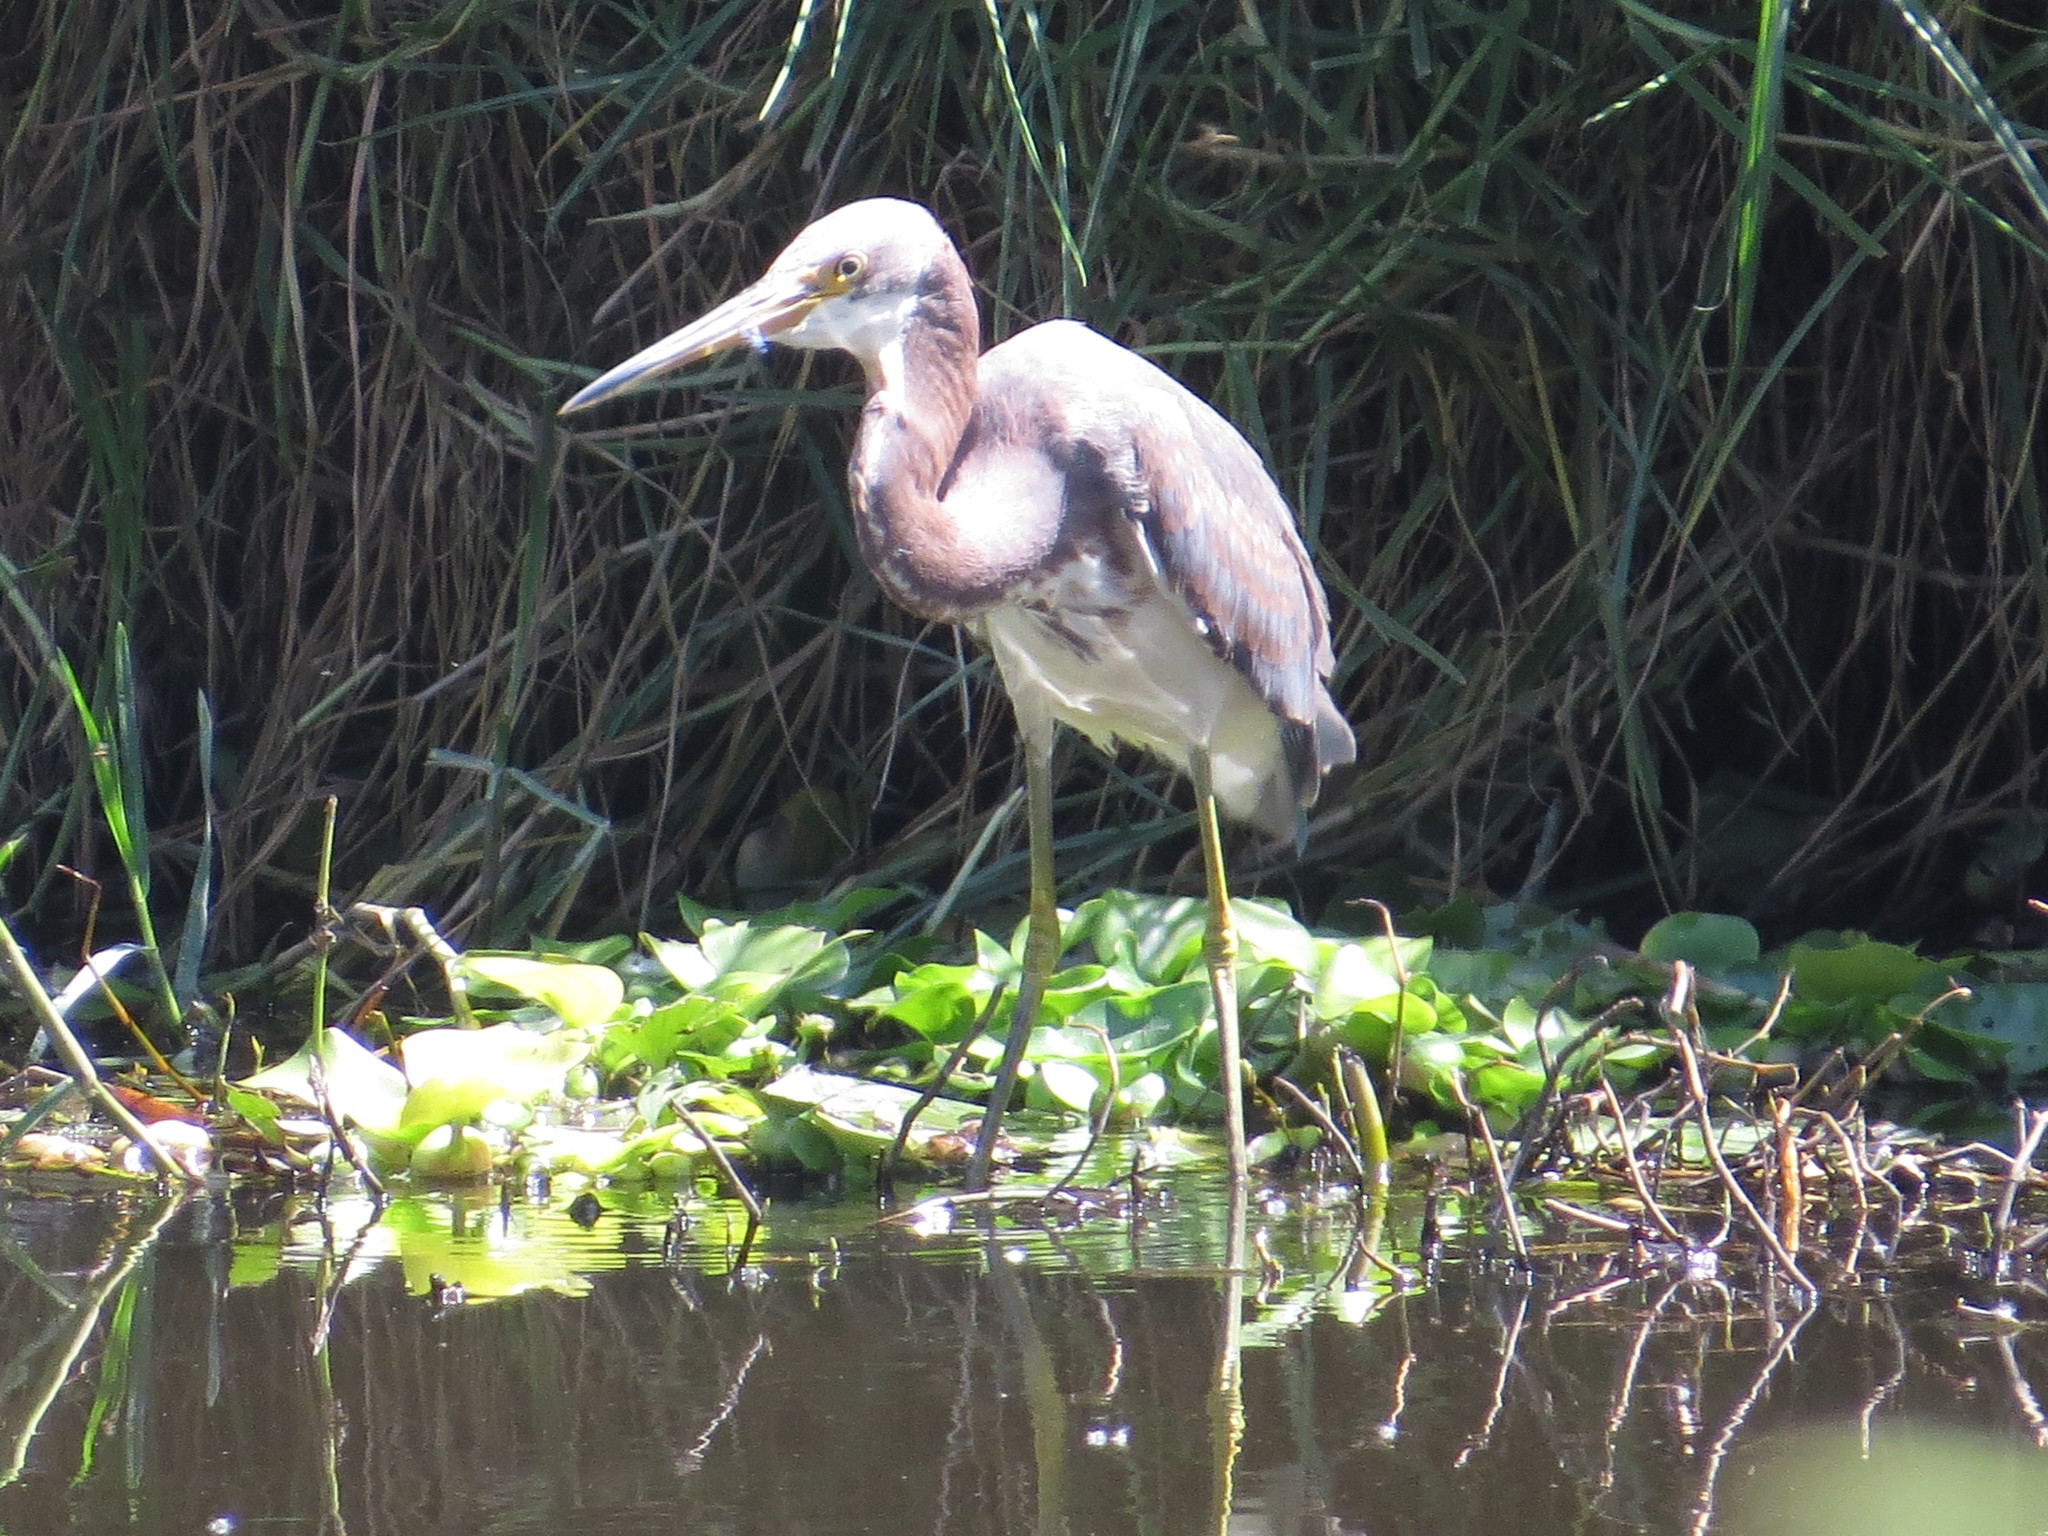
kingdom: Animalia
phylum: Chordata
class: Aves
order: Pelecaniformes
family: Ardeidae
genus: Egretta
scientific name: Egretta tricolor
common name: Tricolored heron
